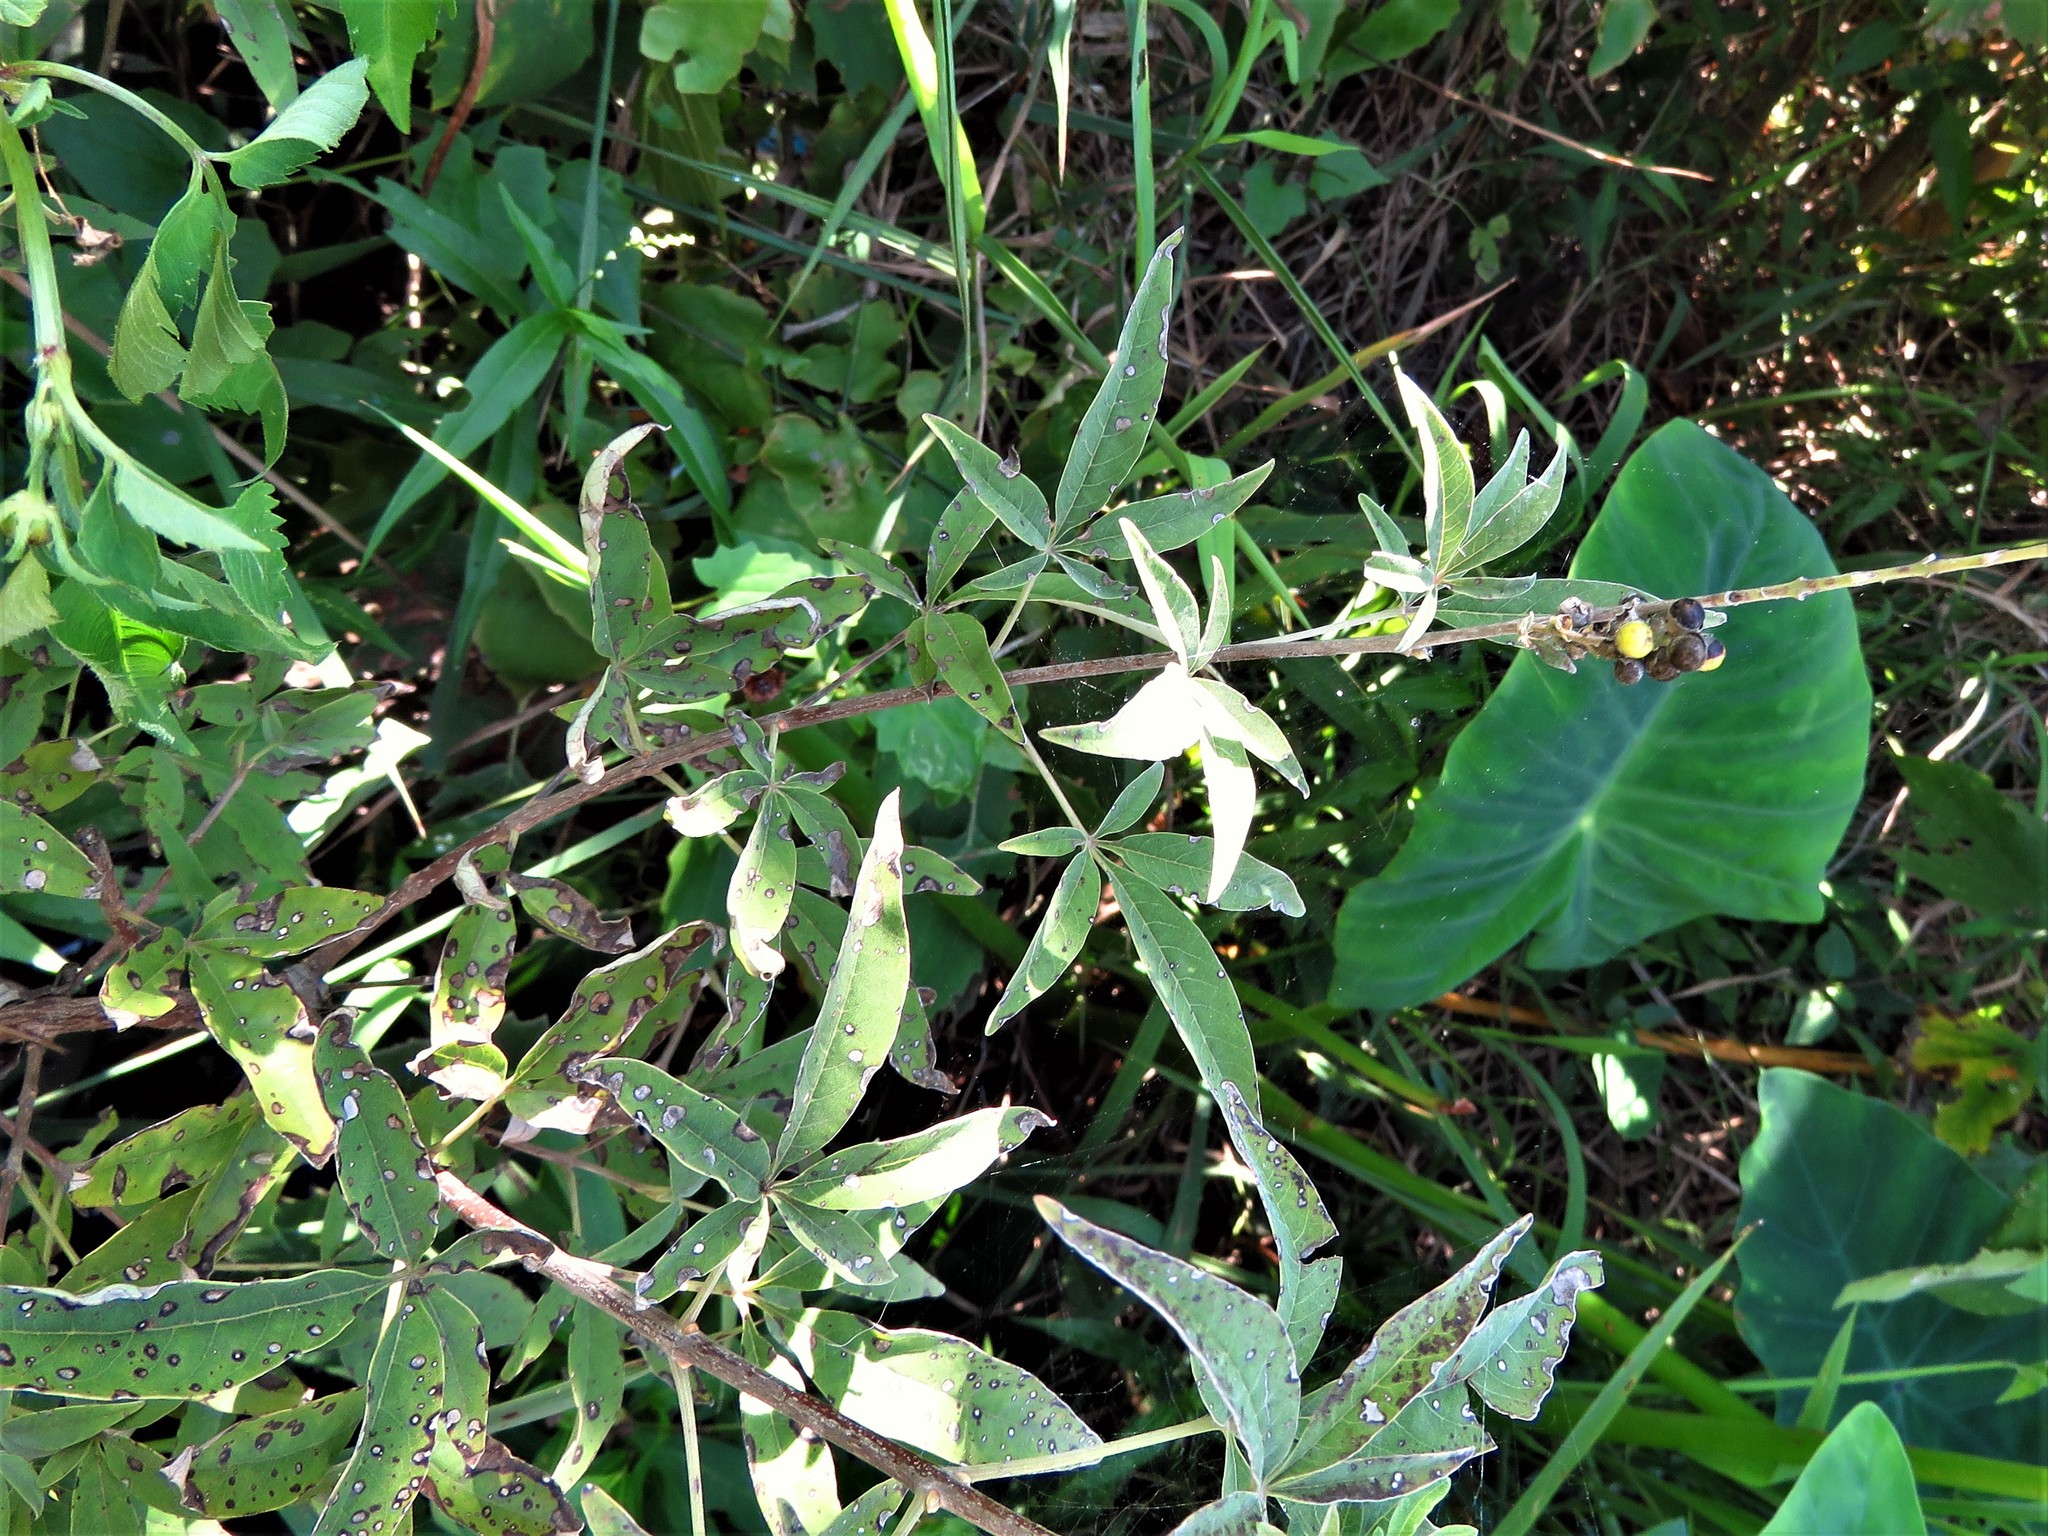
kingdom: Plantae
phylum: Tracheophyta
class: Magnoliopsida
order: Lamiales
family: Lamiaceae
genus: Vitex
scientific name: Vitex agnus-castus
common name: Chasteberry
